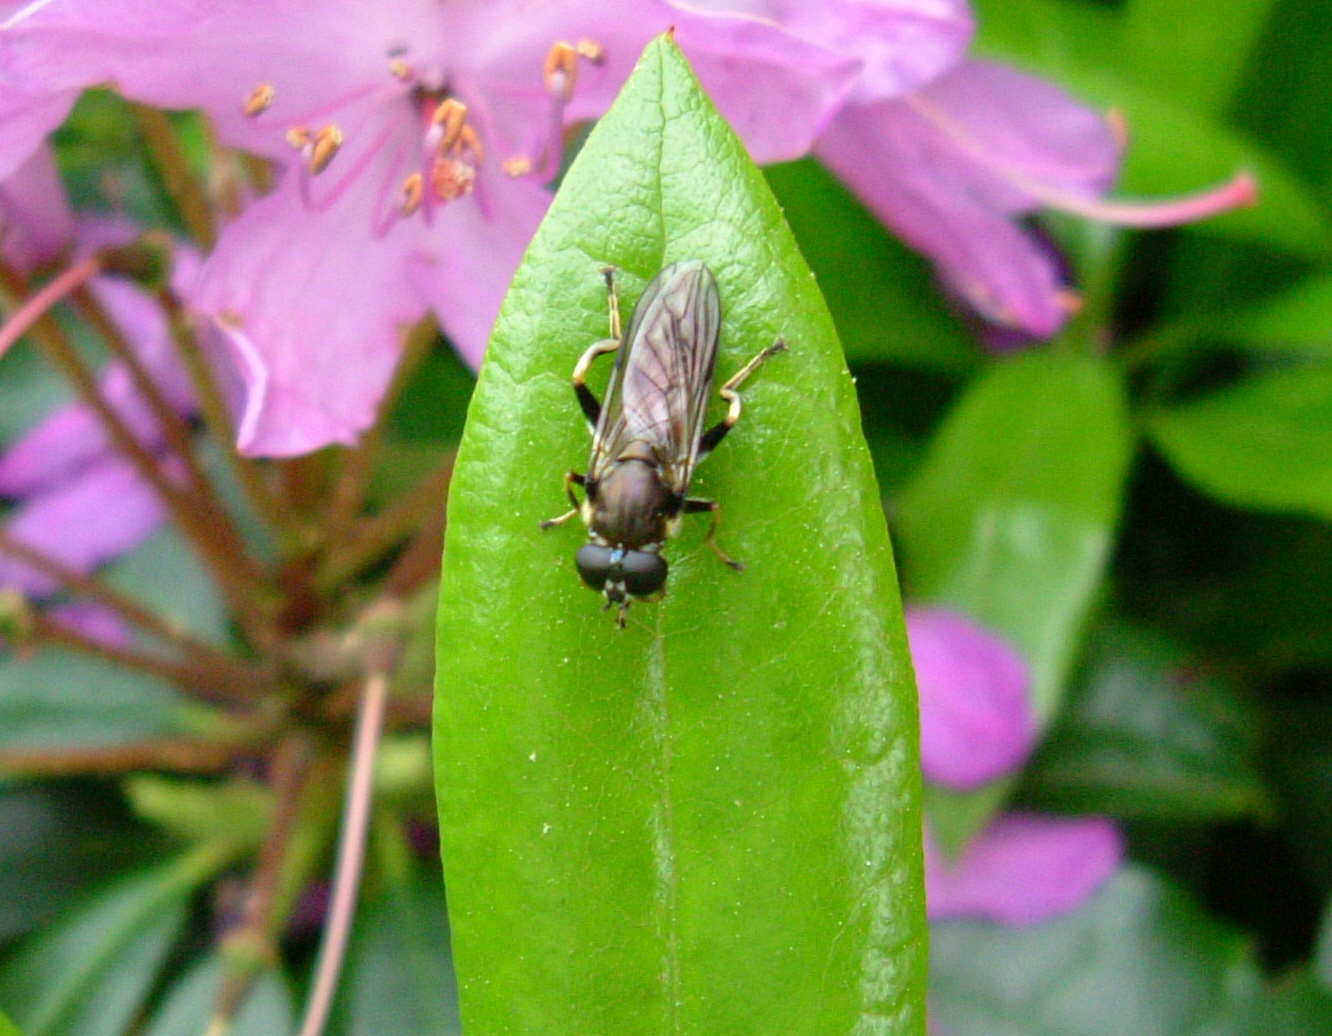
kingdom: Animalia
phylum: Arthropoda
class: Insecta
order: Diptera
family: Syrphidae
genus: Xylota
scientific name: Xylota segnis
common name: Brown-toed forest fly
